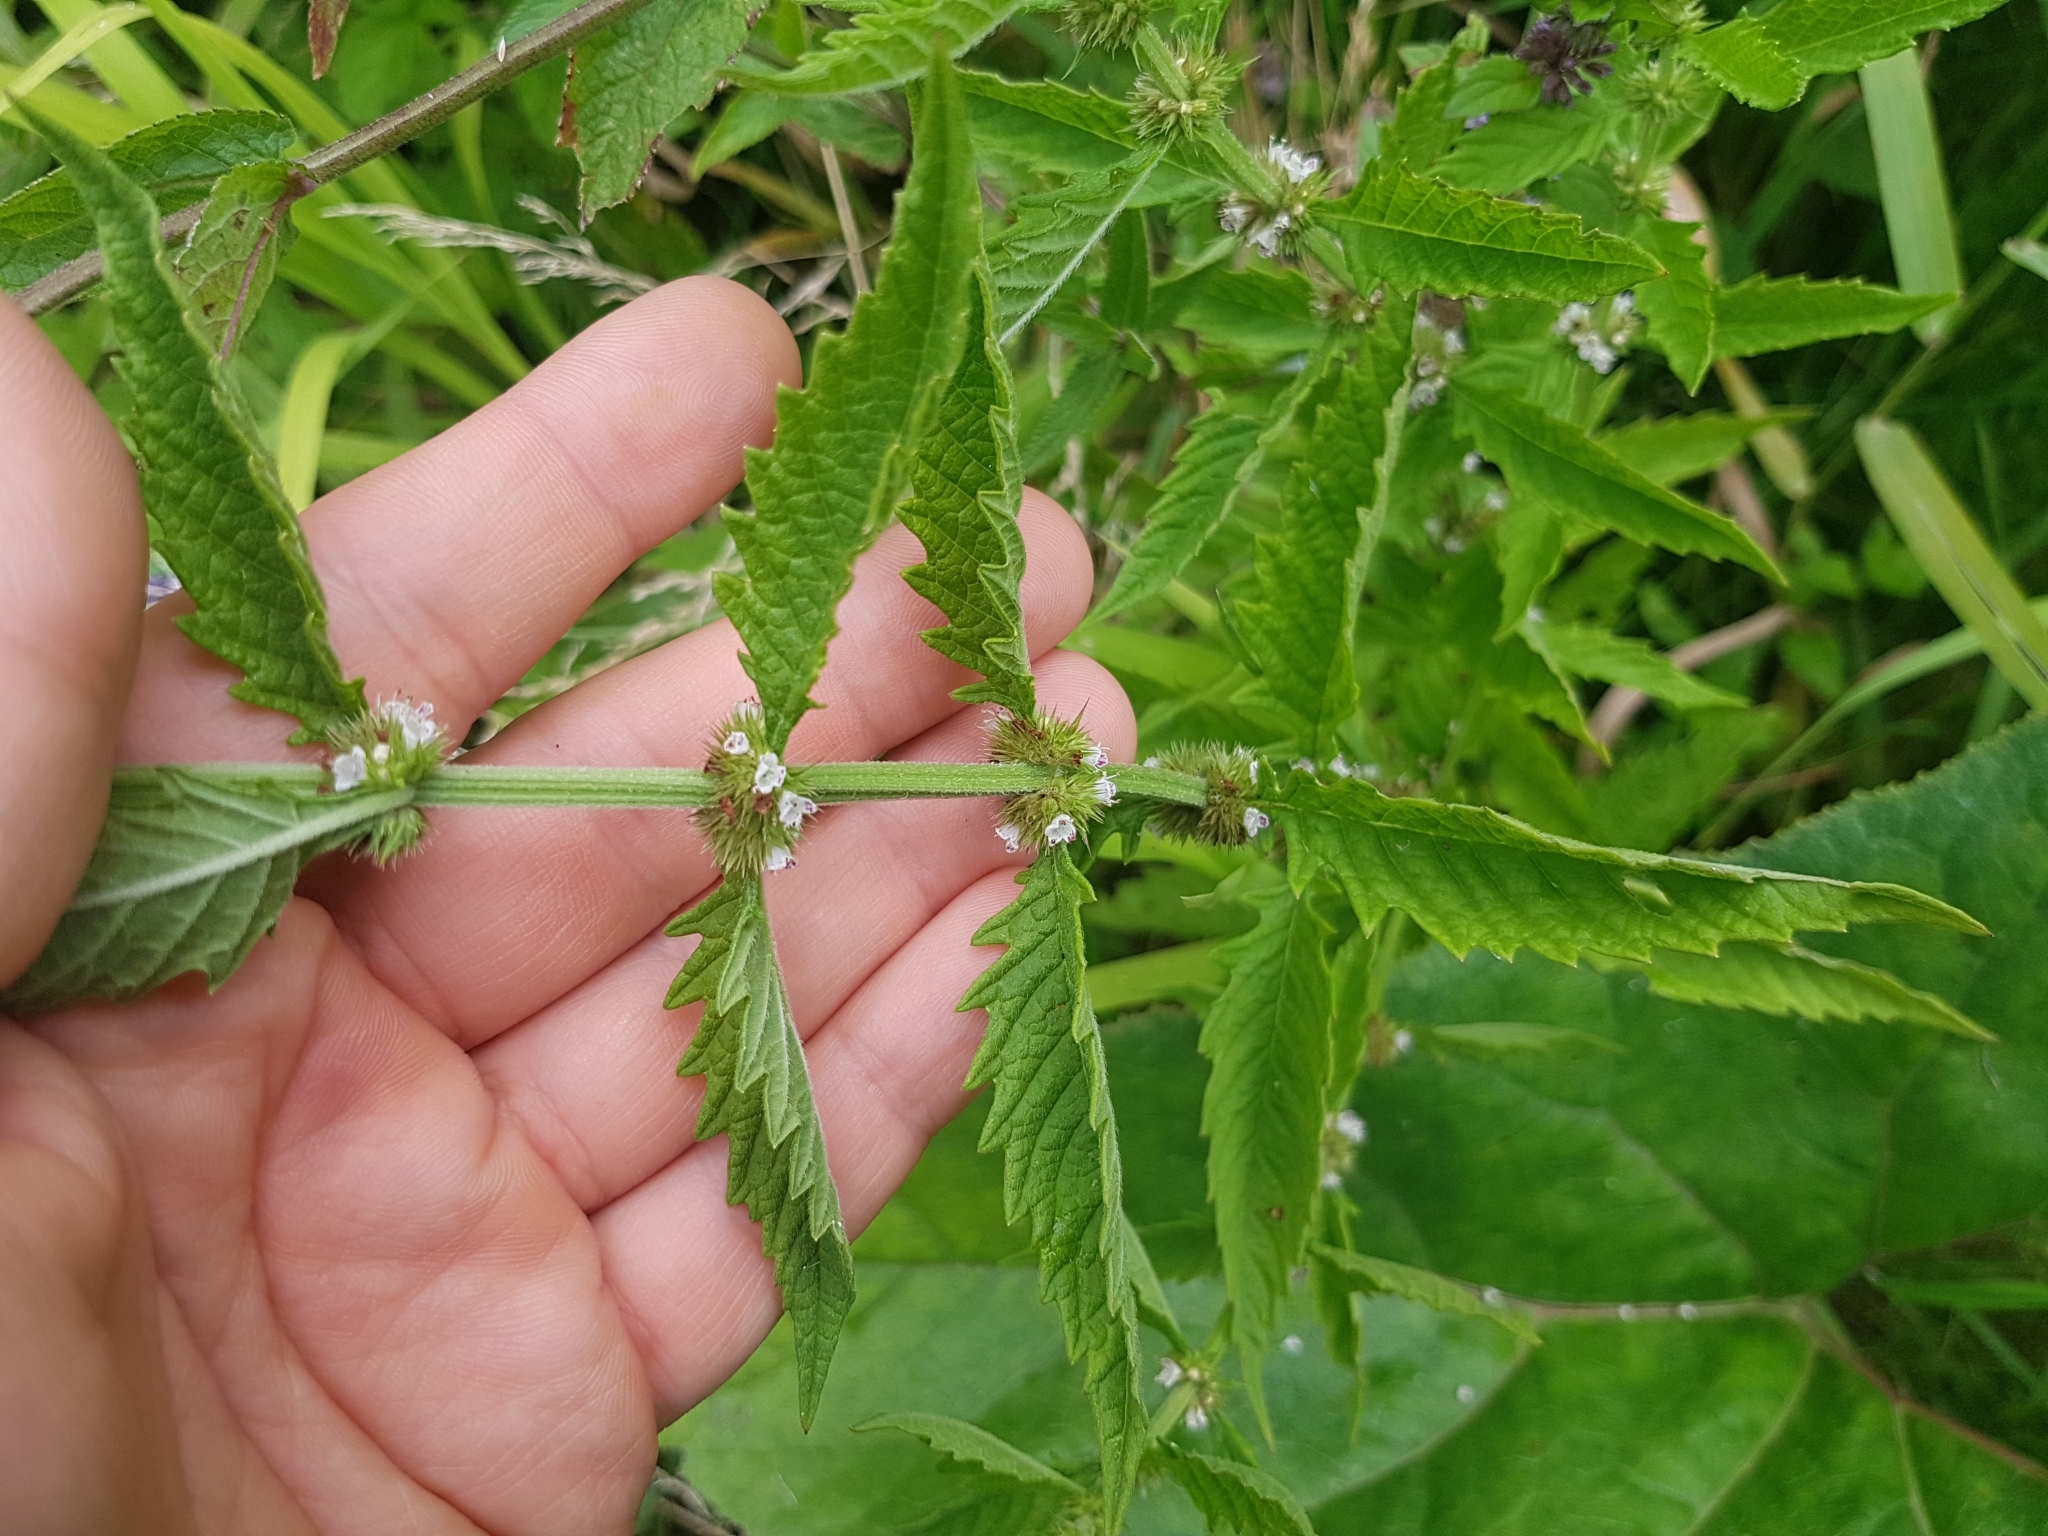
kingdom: Plantae
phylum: Tracheophyta
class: Magnoliopsida
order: Lamiales
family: Lamiaceae
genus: Lycopus
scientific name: Lycopus europaeus
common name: European bugleweed
